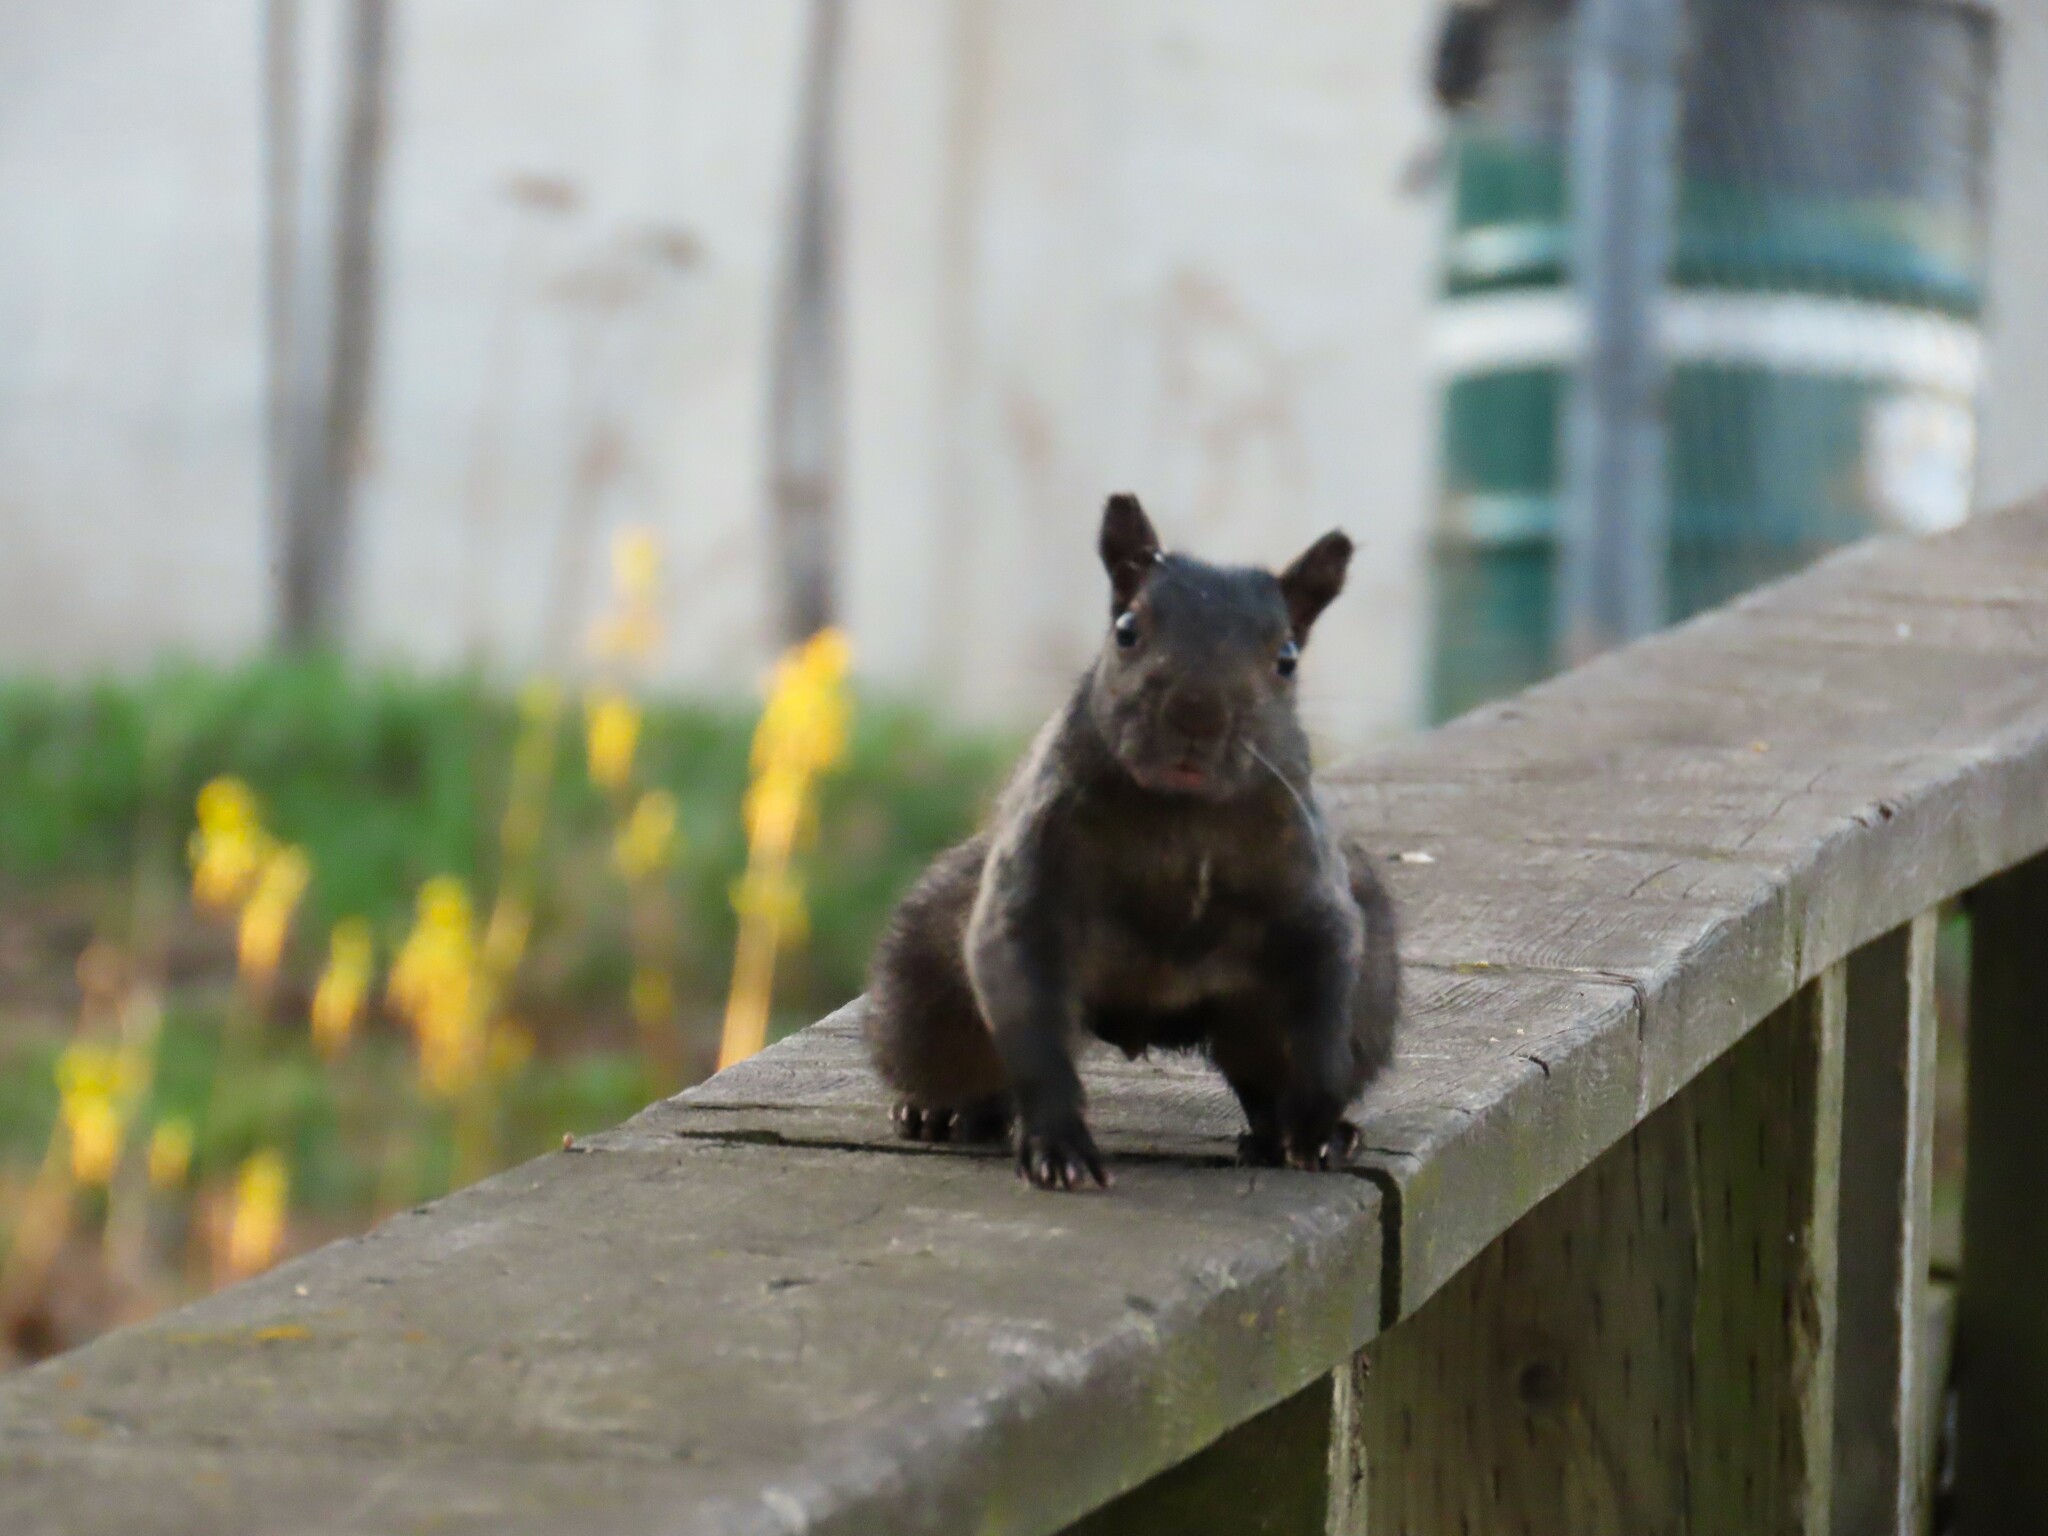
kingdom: Animalia
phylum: Chordata
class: Mammalia
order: Rodentia
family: Sciuridae
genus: Sciurus
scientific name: Sciurus carolinensis
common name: Eastern gray squirrel
